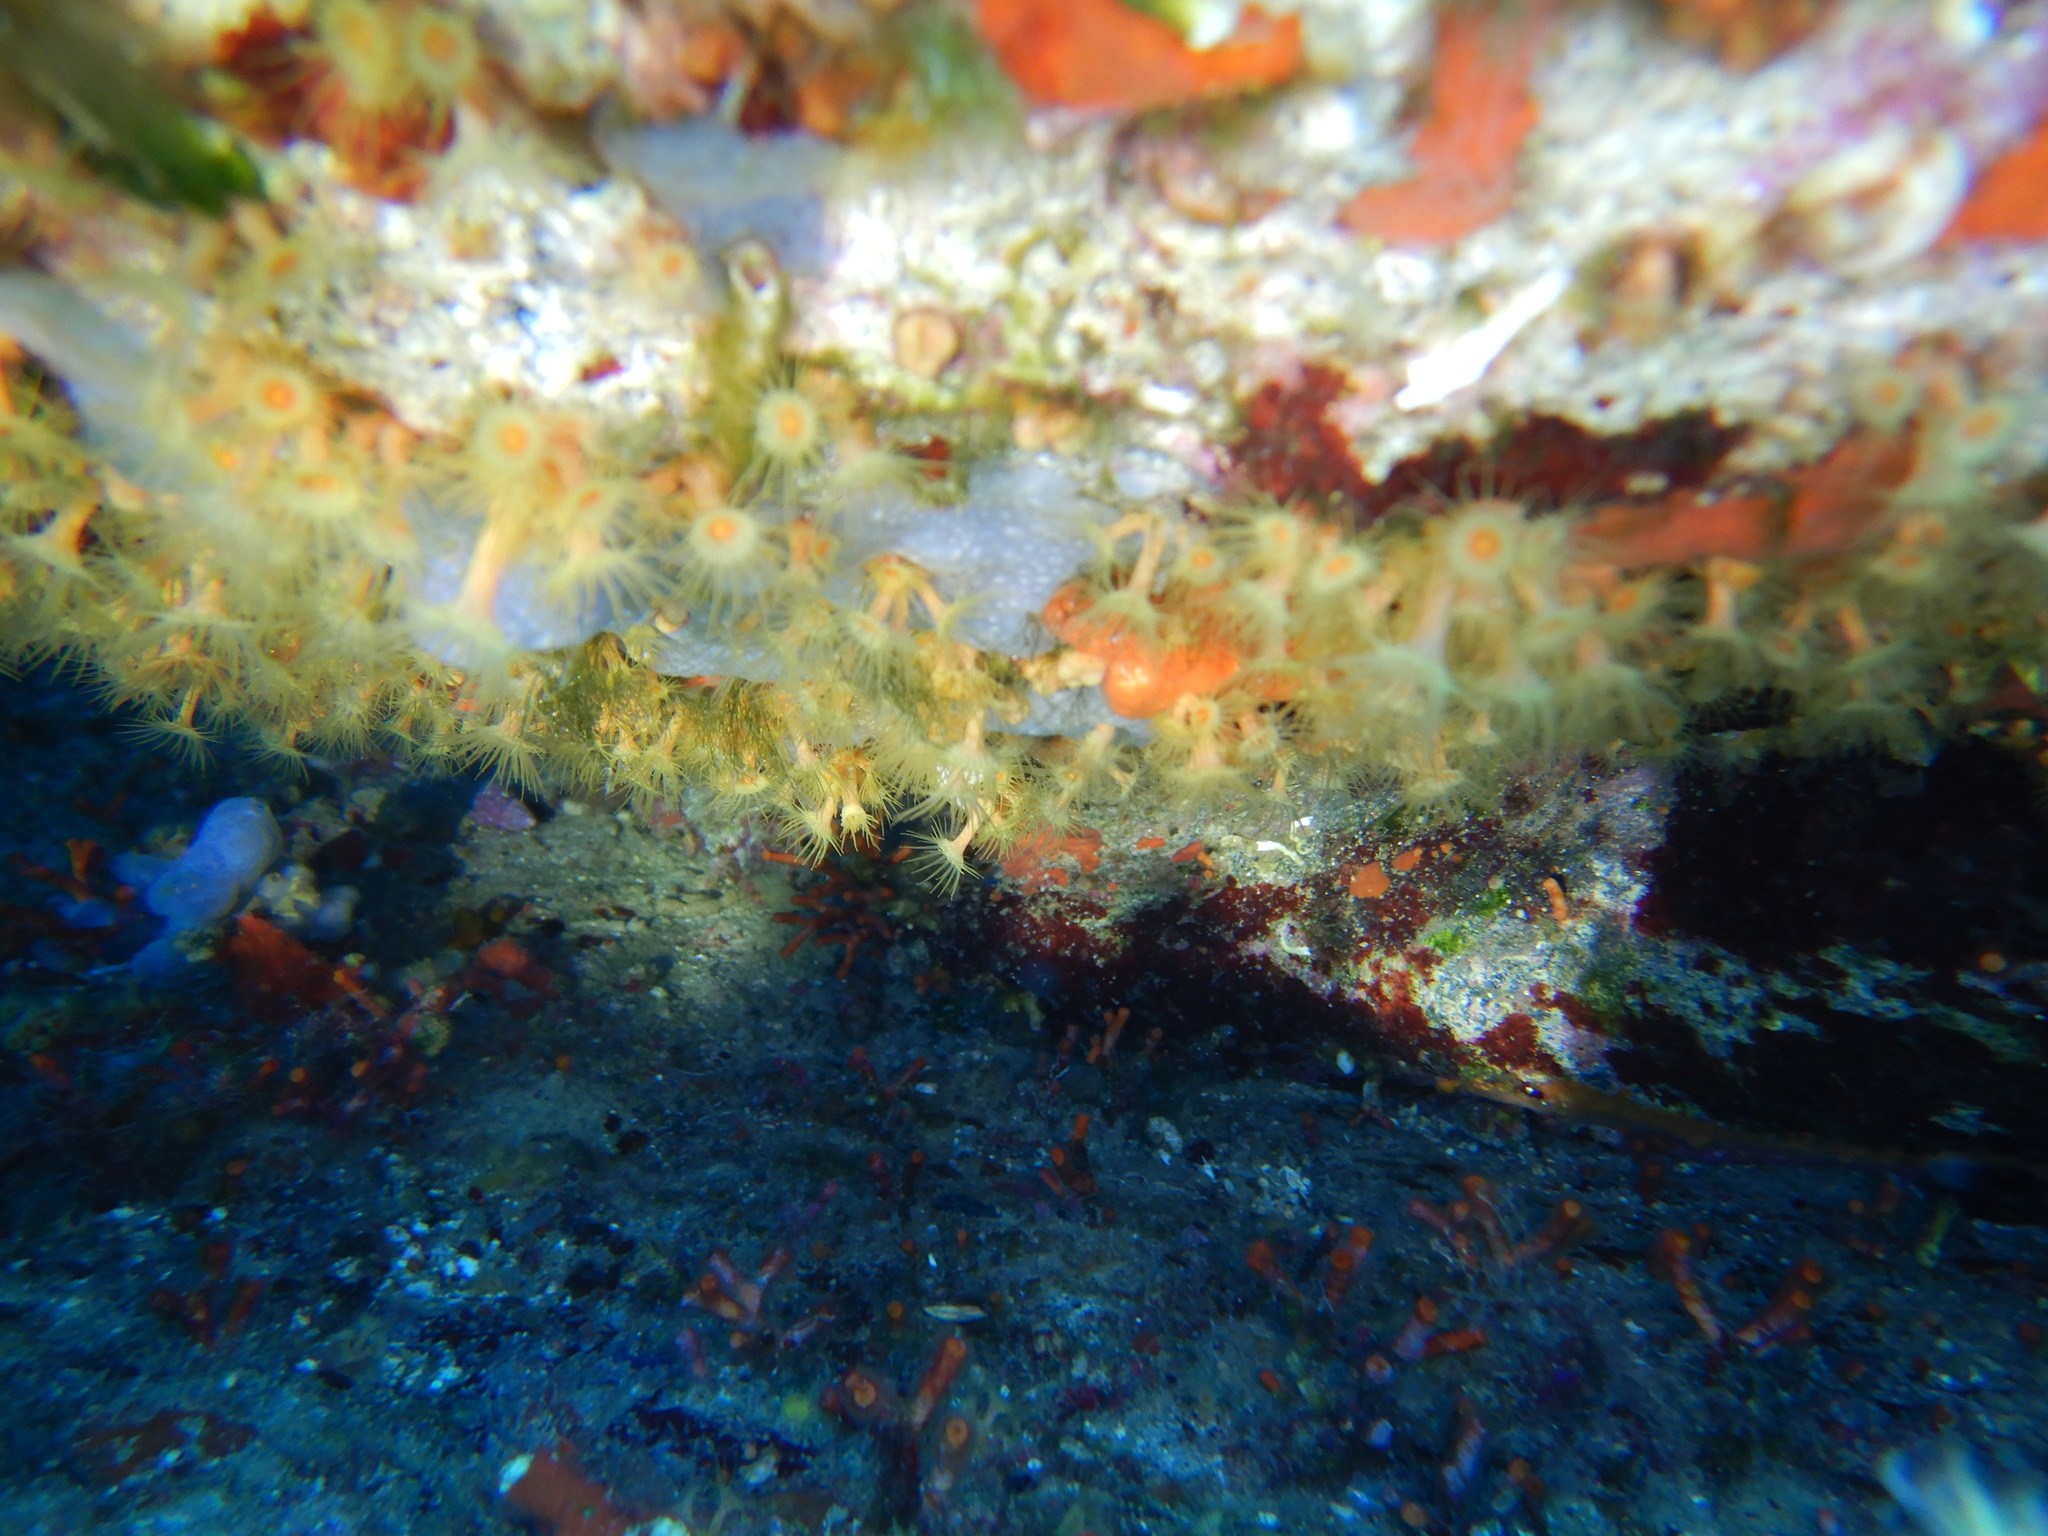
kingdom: Animalia
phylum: Cnidaria
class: Anthozoa
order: Zoantharia
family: Parazoanthidae
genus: Parazoanthus
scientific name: Parazoanthus axinellae
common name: Yellow cluster anemone
